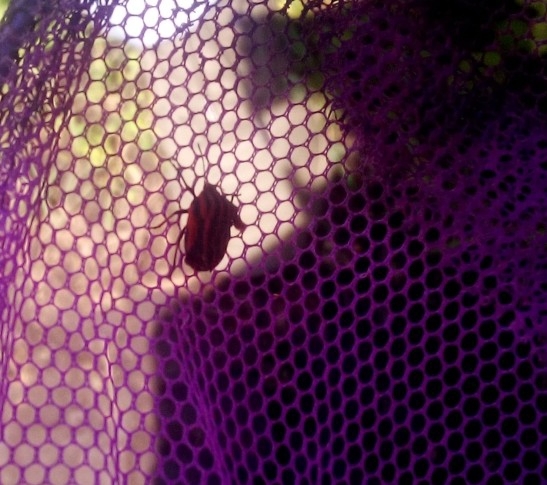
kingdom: Animalia
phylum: Arthropoda
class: Insecta
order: Hemiptera
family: Pentatomidae
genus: Graphosoma
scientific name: Graphosoma italicum
